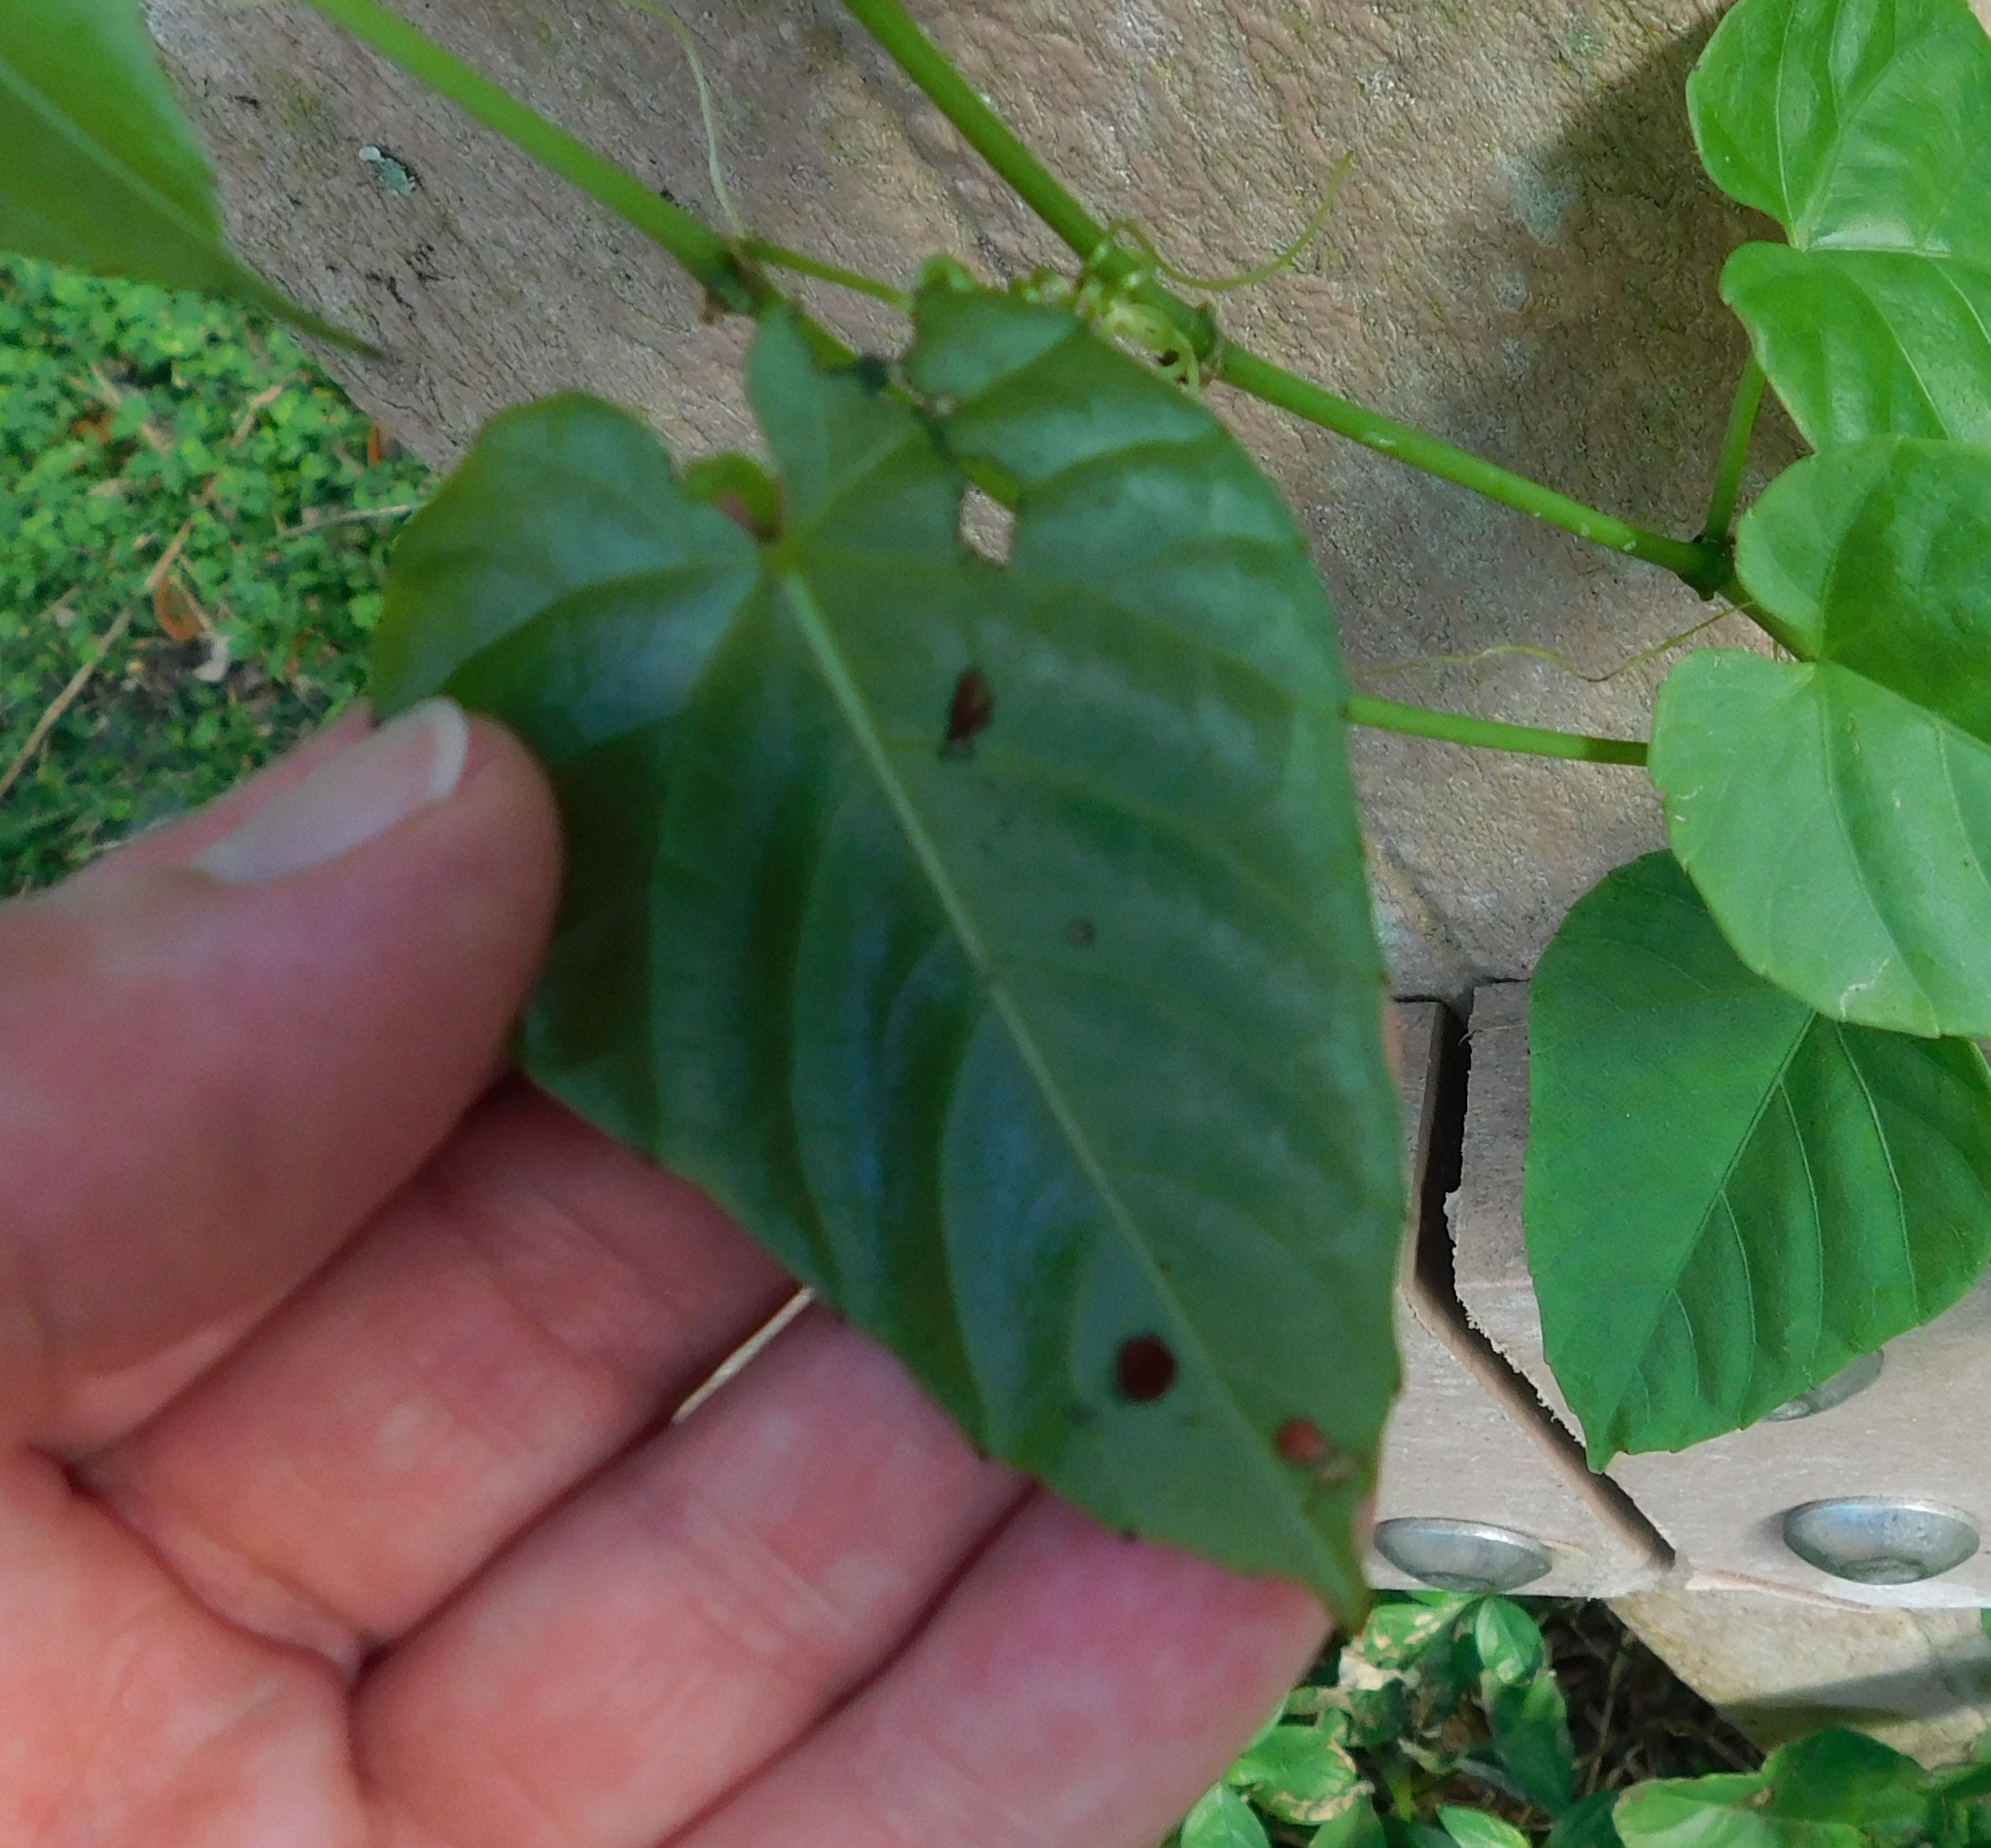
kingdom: Plantae
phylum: Tracheophyta
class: Magnoliopsida
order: Vitales
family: Vitaceae
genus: Cissus
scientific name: Cissus verticillata
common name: Princess vine
